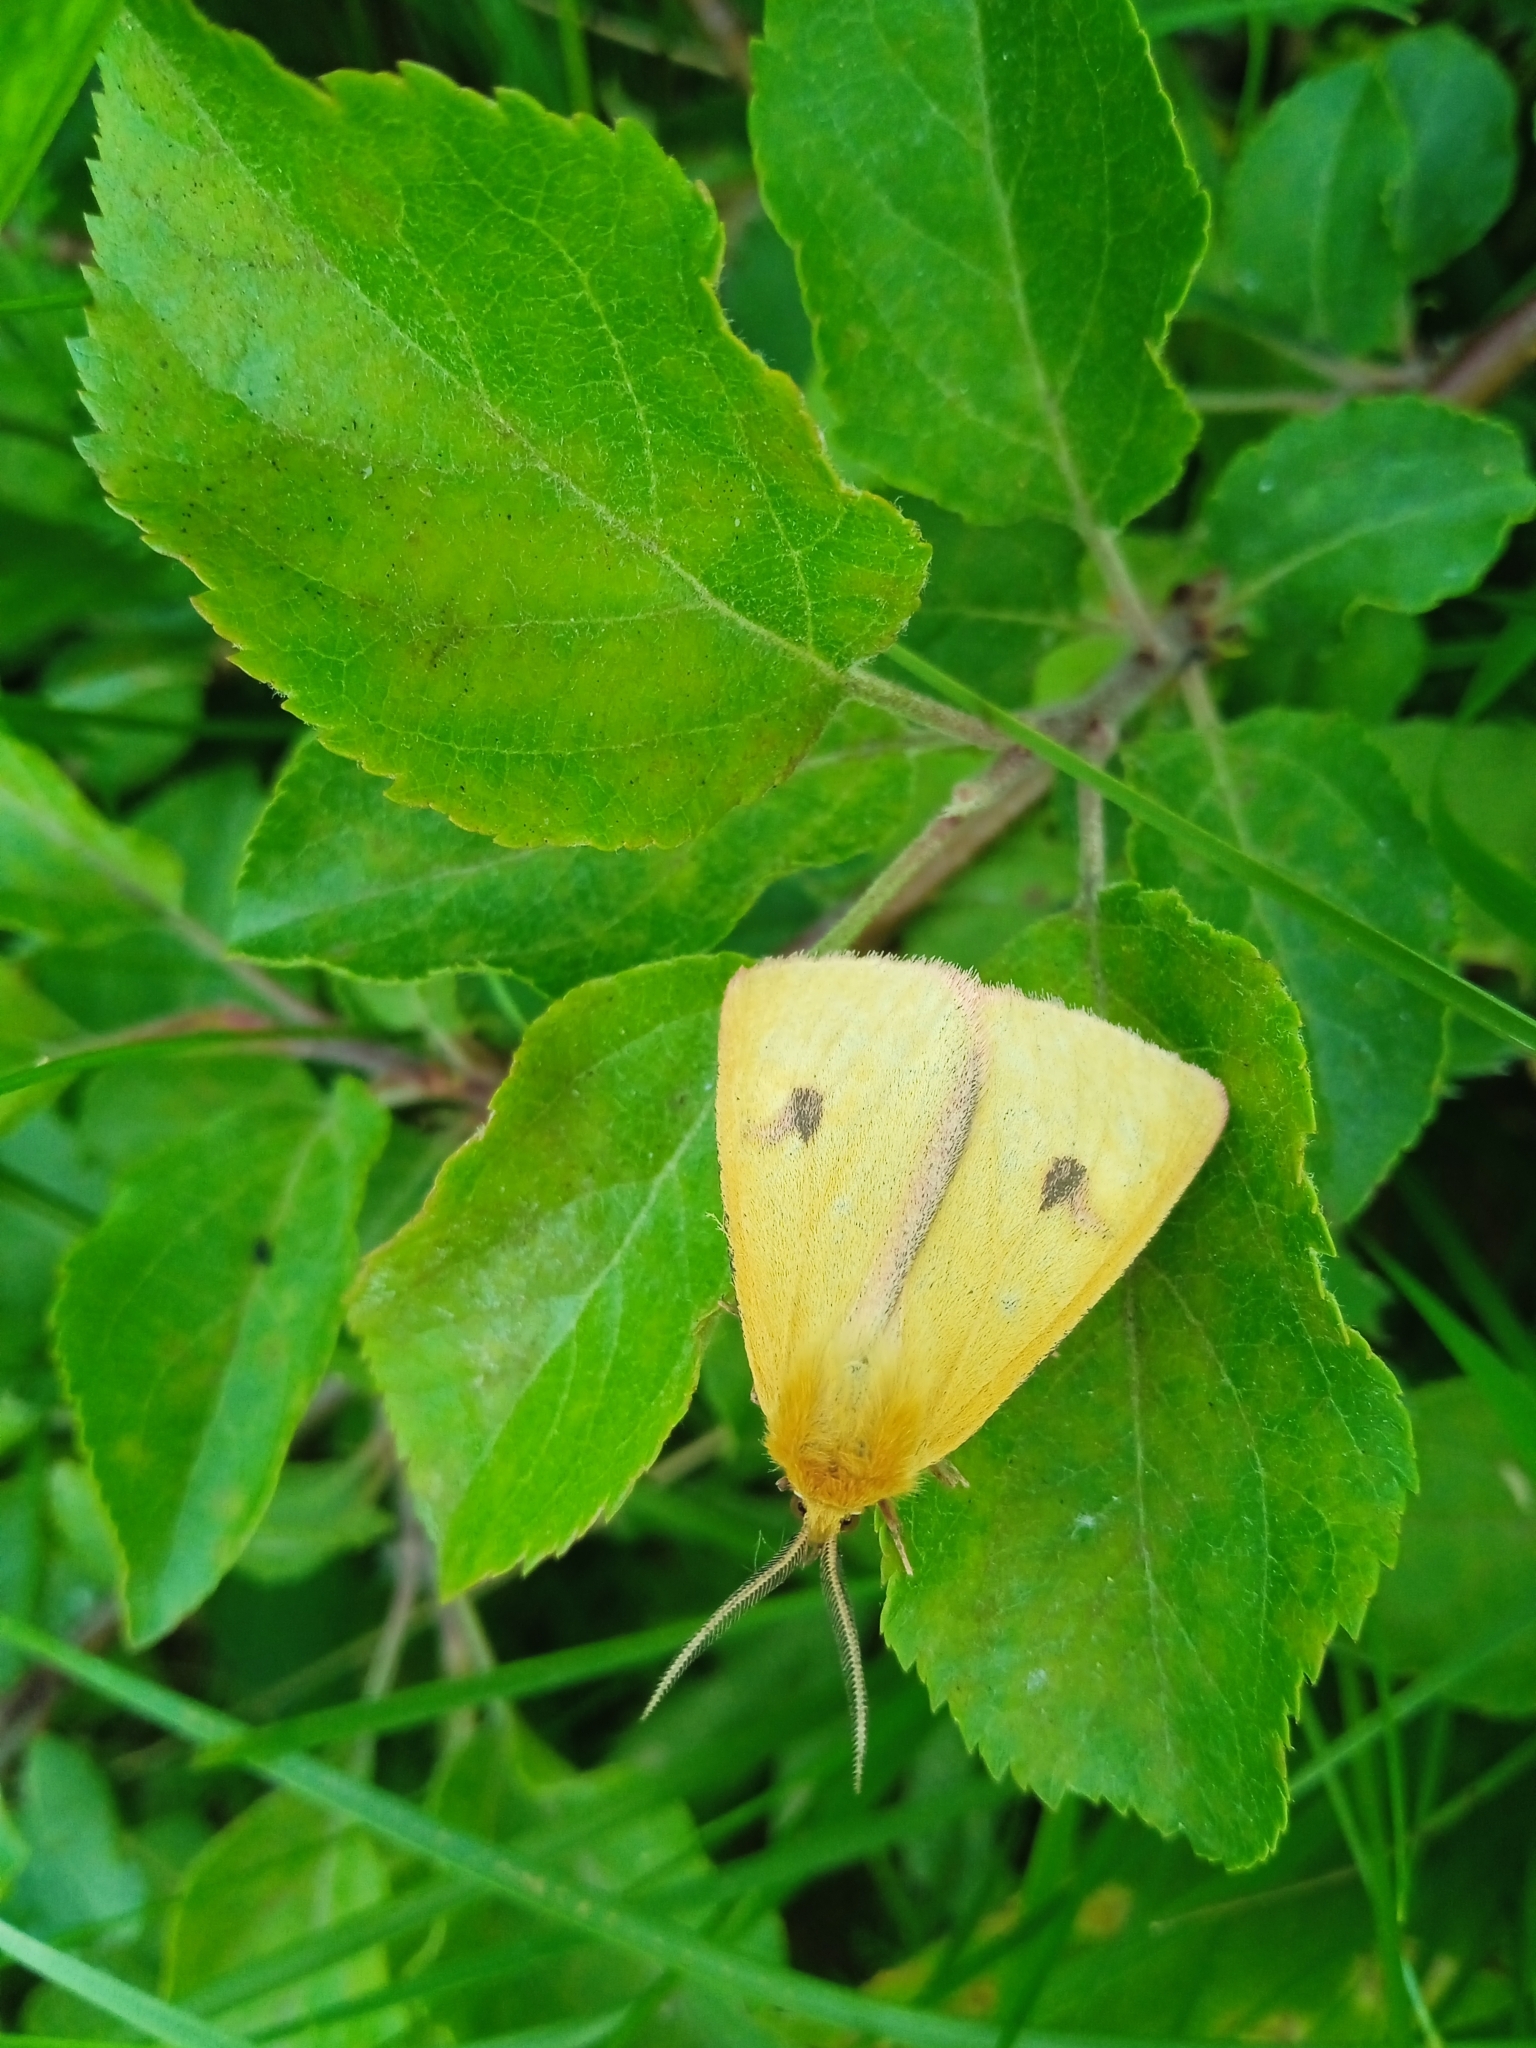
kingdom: Animalia
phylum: Arthropoda
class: Insecta
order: Lepidoptera
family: Erebidae
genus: Diacrisia
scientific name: Diacrisia sannio
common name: Clouded buff
